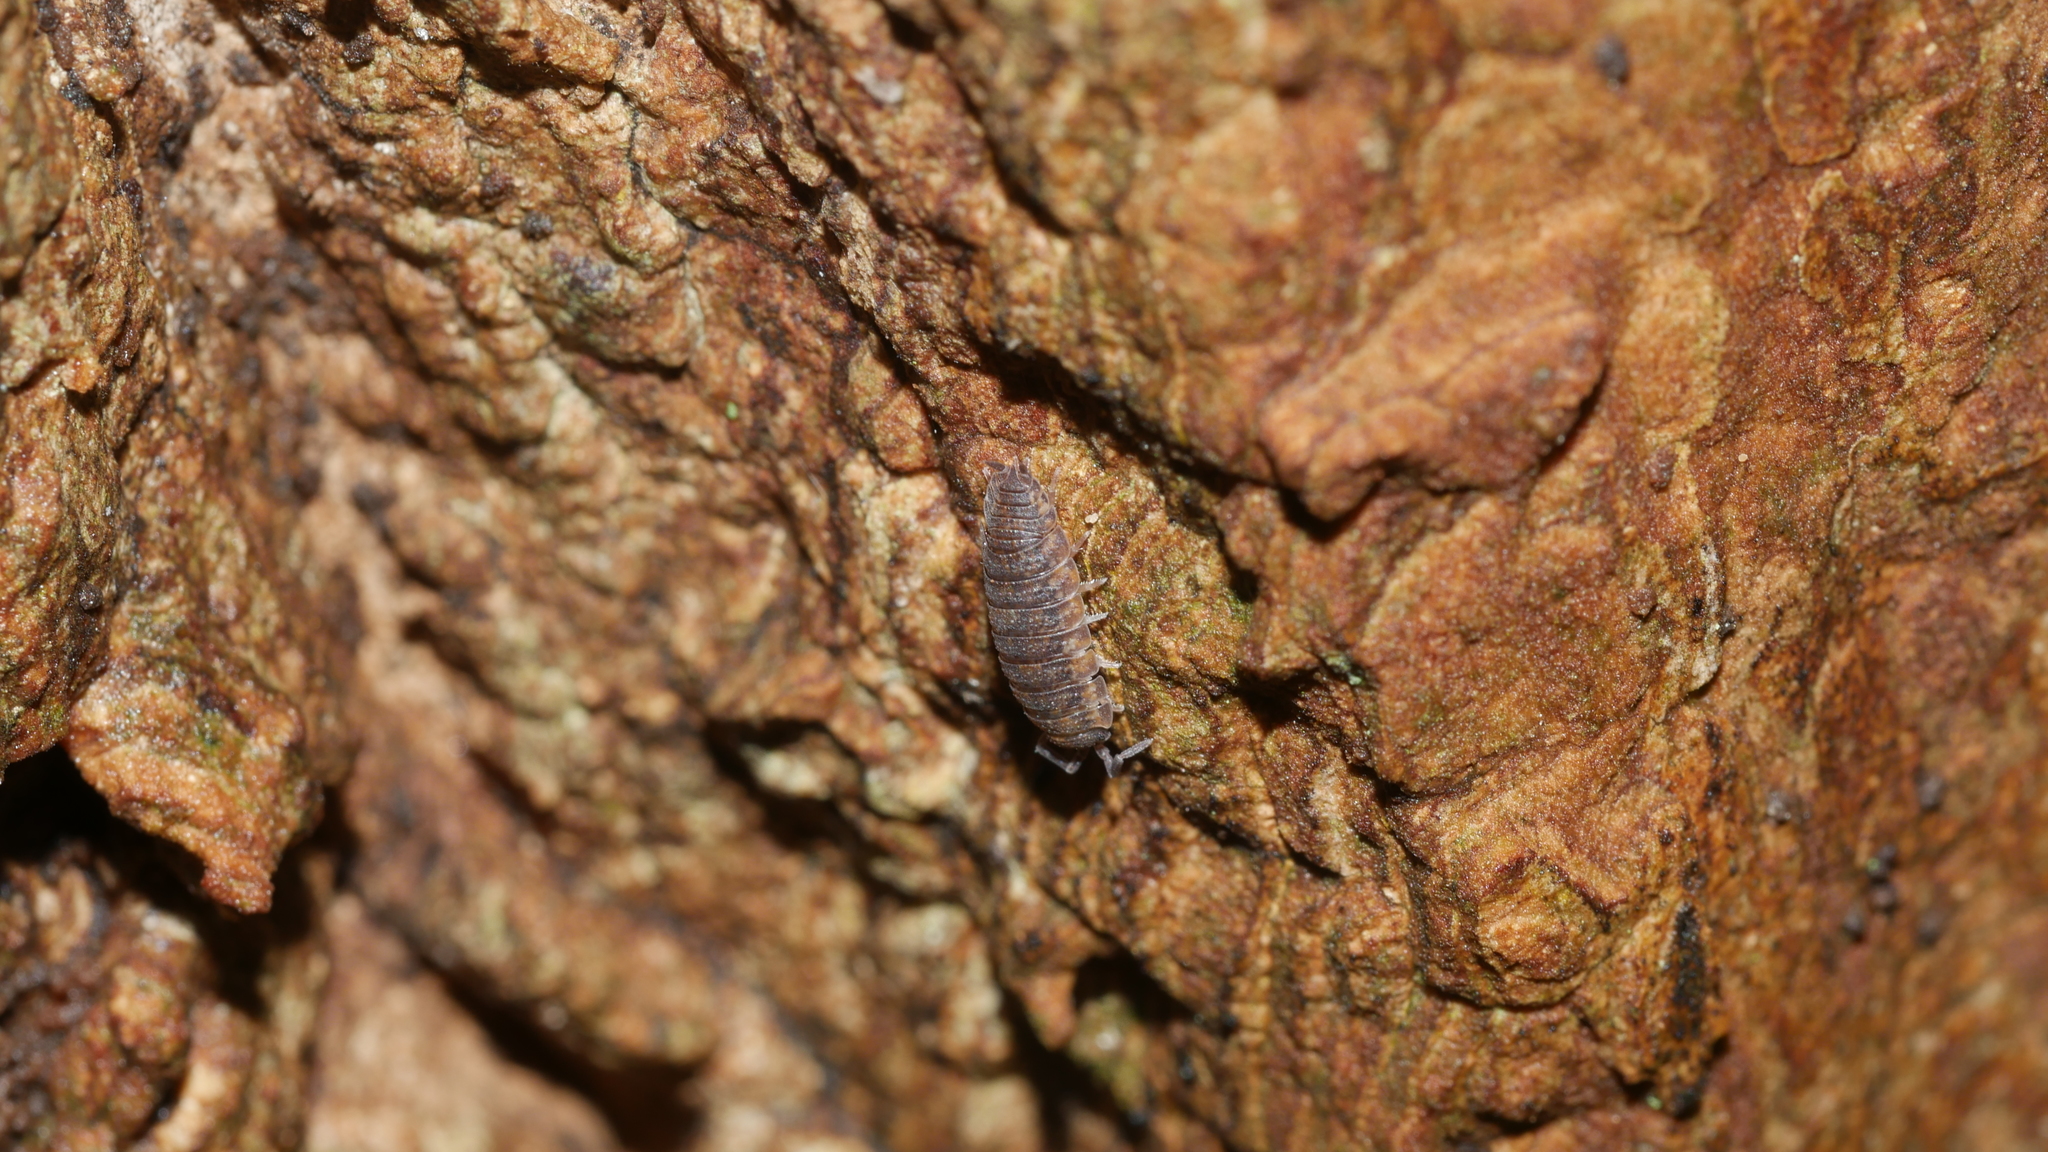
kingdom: Animalia
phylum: Arthropoda
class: Malacostraca
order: Isopoda
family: Porcellionidae
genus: Porcellio
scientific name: Porcellio scaber
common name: Common rough woodlouse
